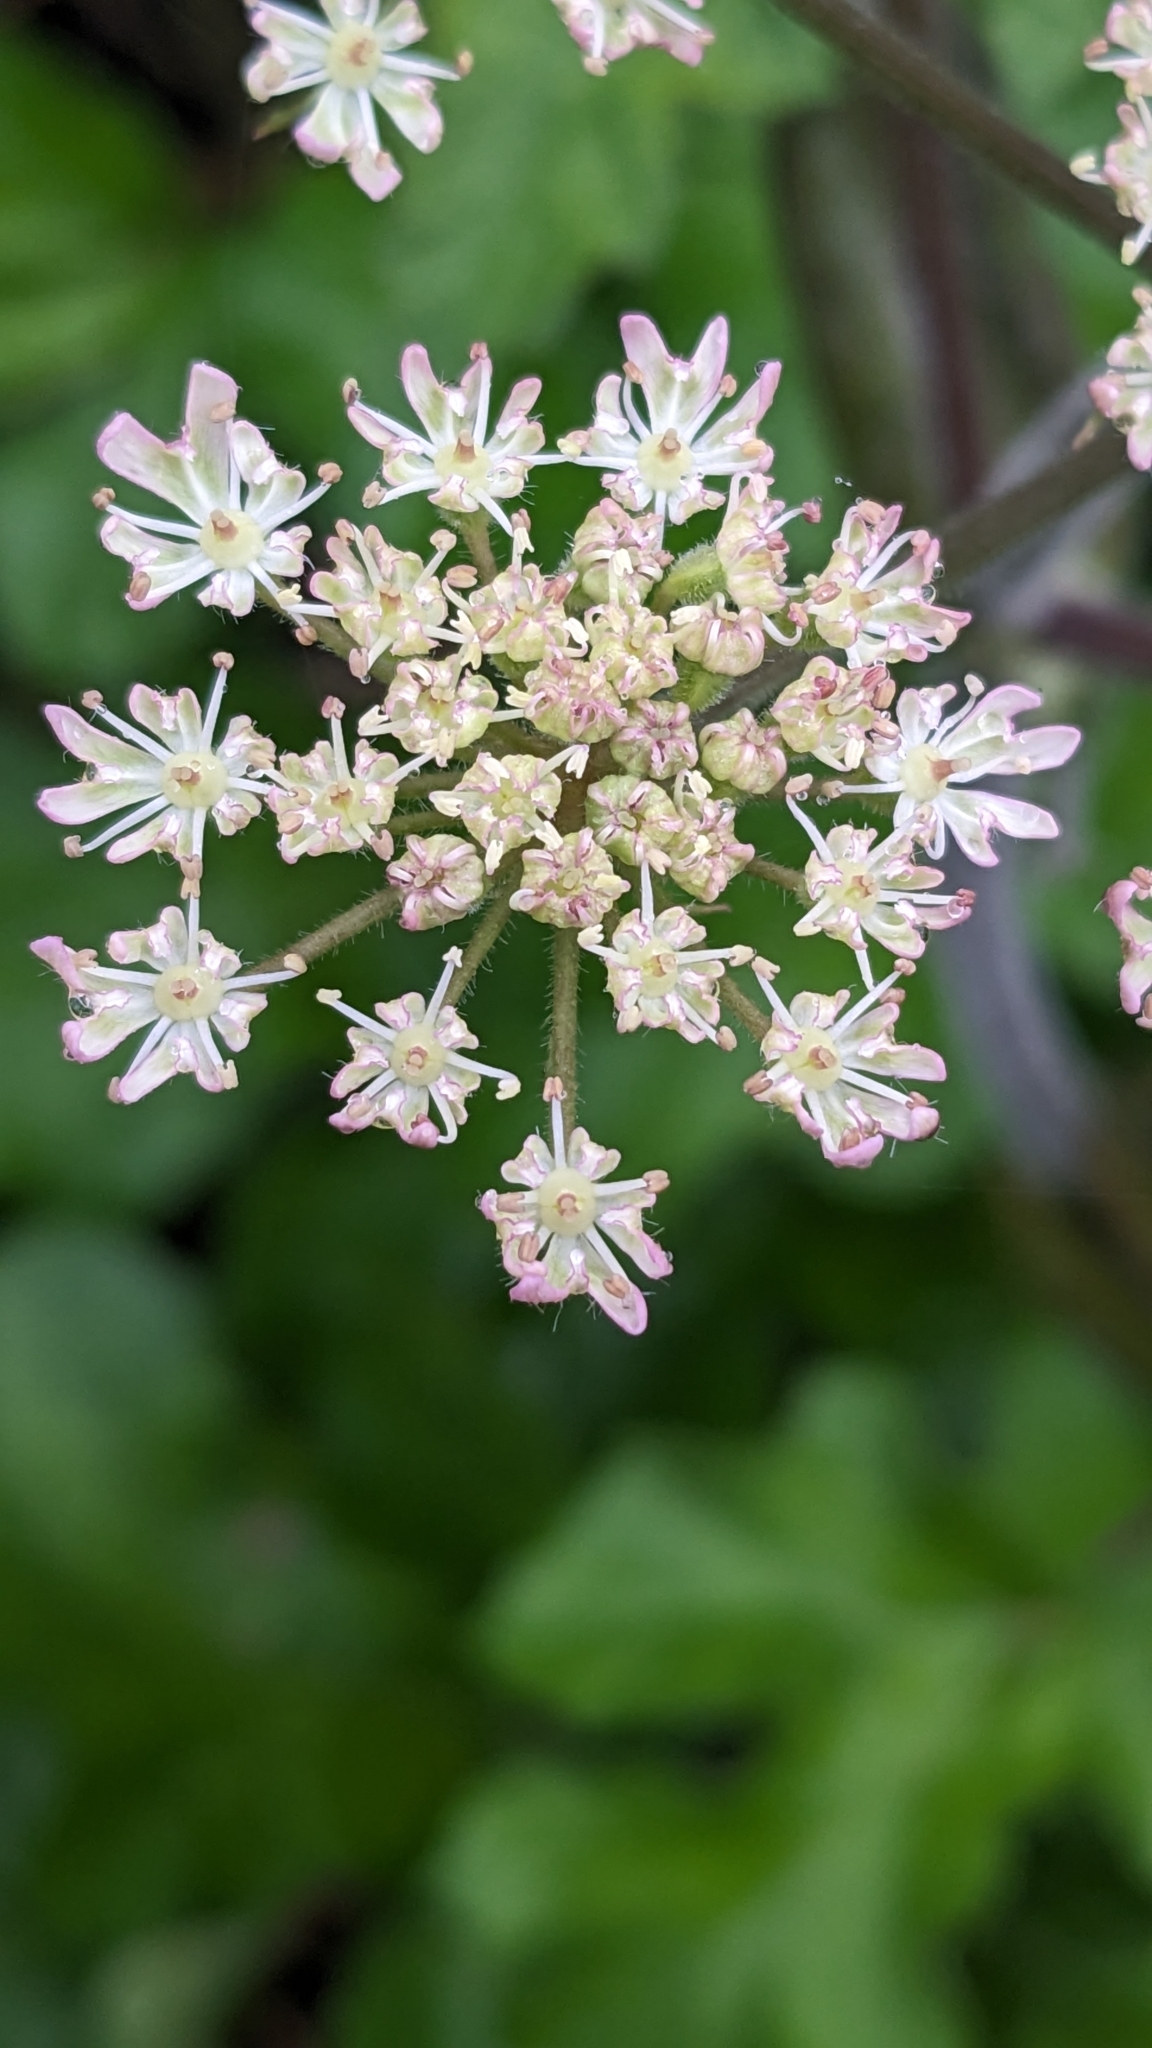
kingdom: Plantae
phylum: Tracheophyta
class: Magnoliopsida
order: Apiales
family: Apiaceae
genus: Heracleum
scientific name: Heracleum sphondylium
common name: Hogweed
